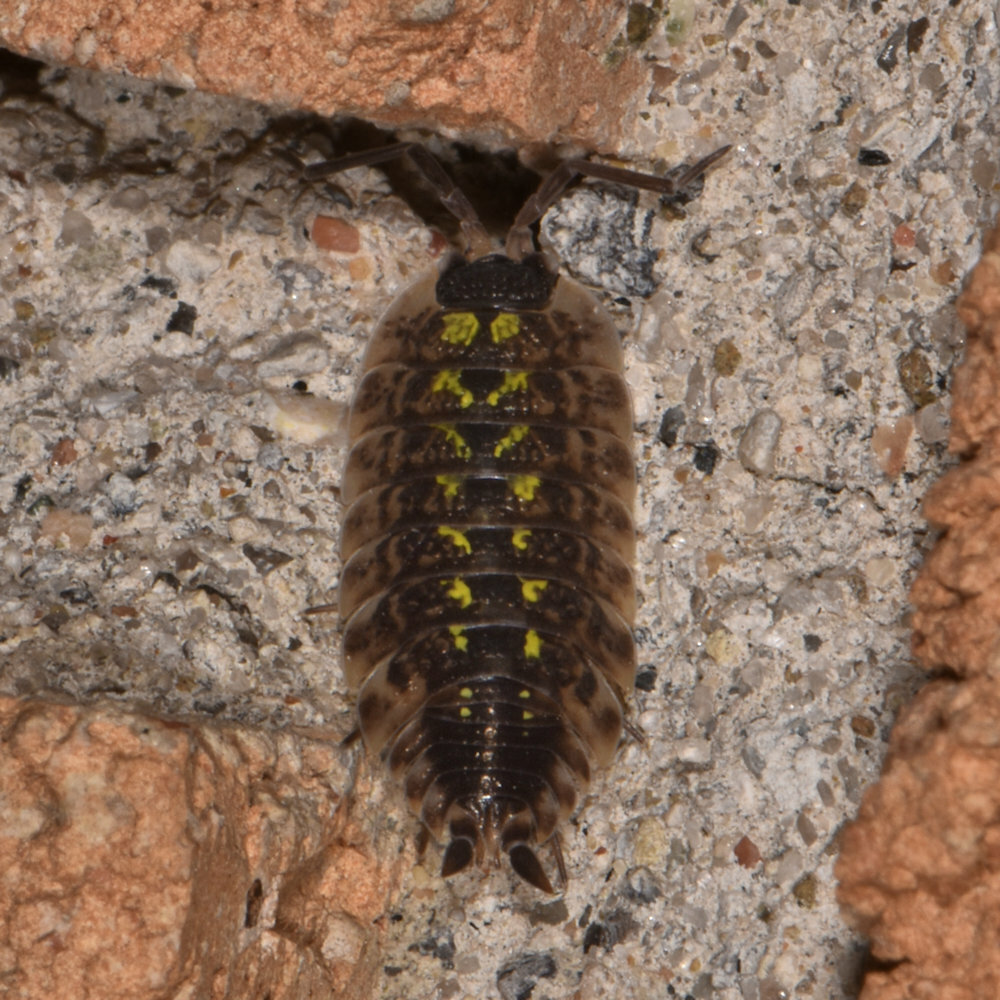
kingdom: Animalia
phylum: Arthropoda
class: Malacostraca
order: Isopoda
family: Porcellionidae
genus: Porcellio
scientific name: Porcellio spinicornis
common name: Painted woodlouse
